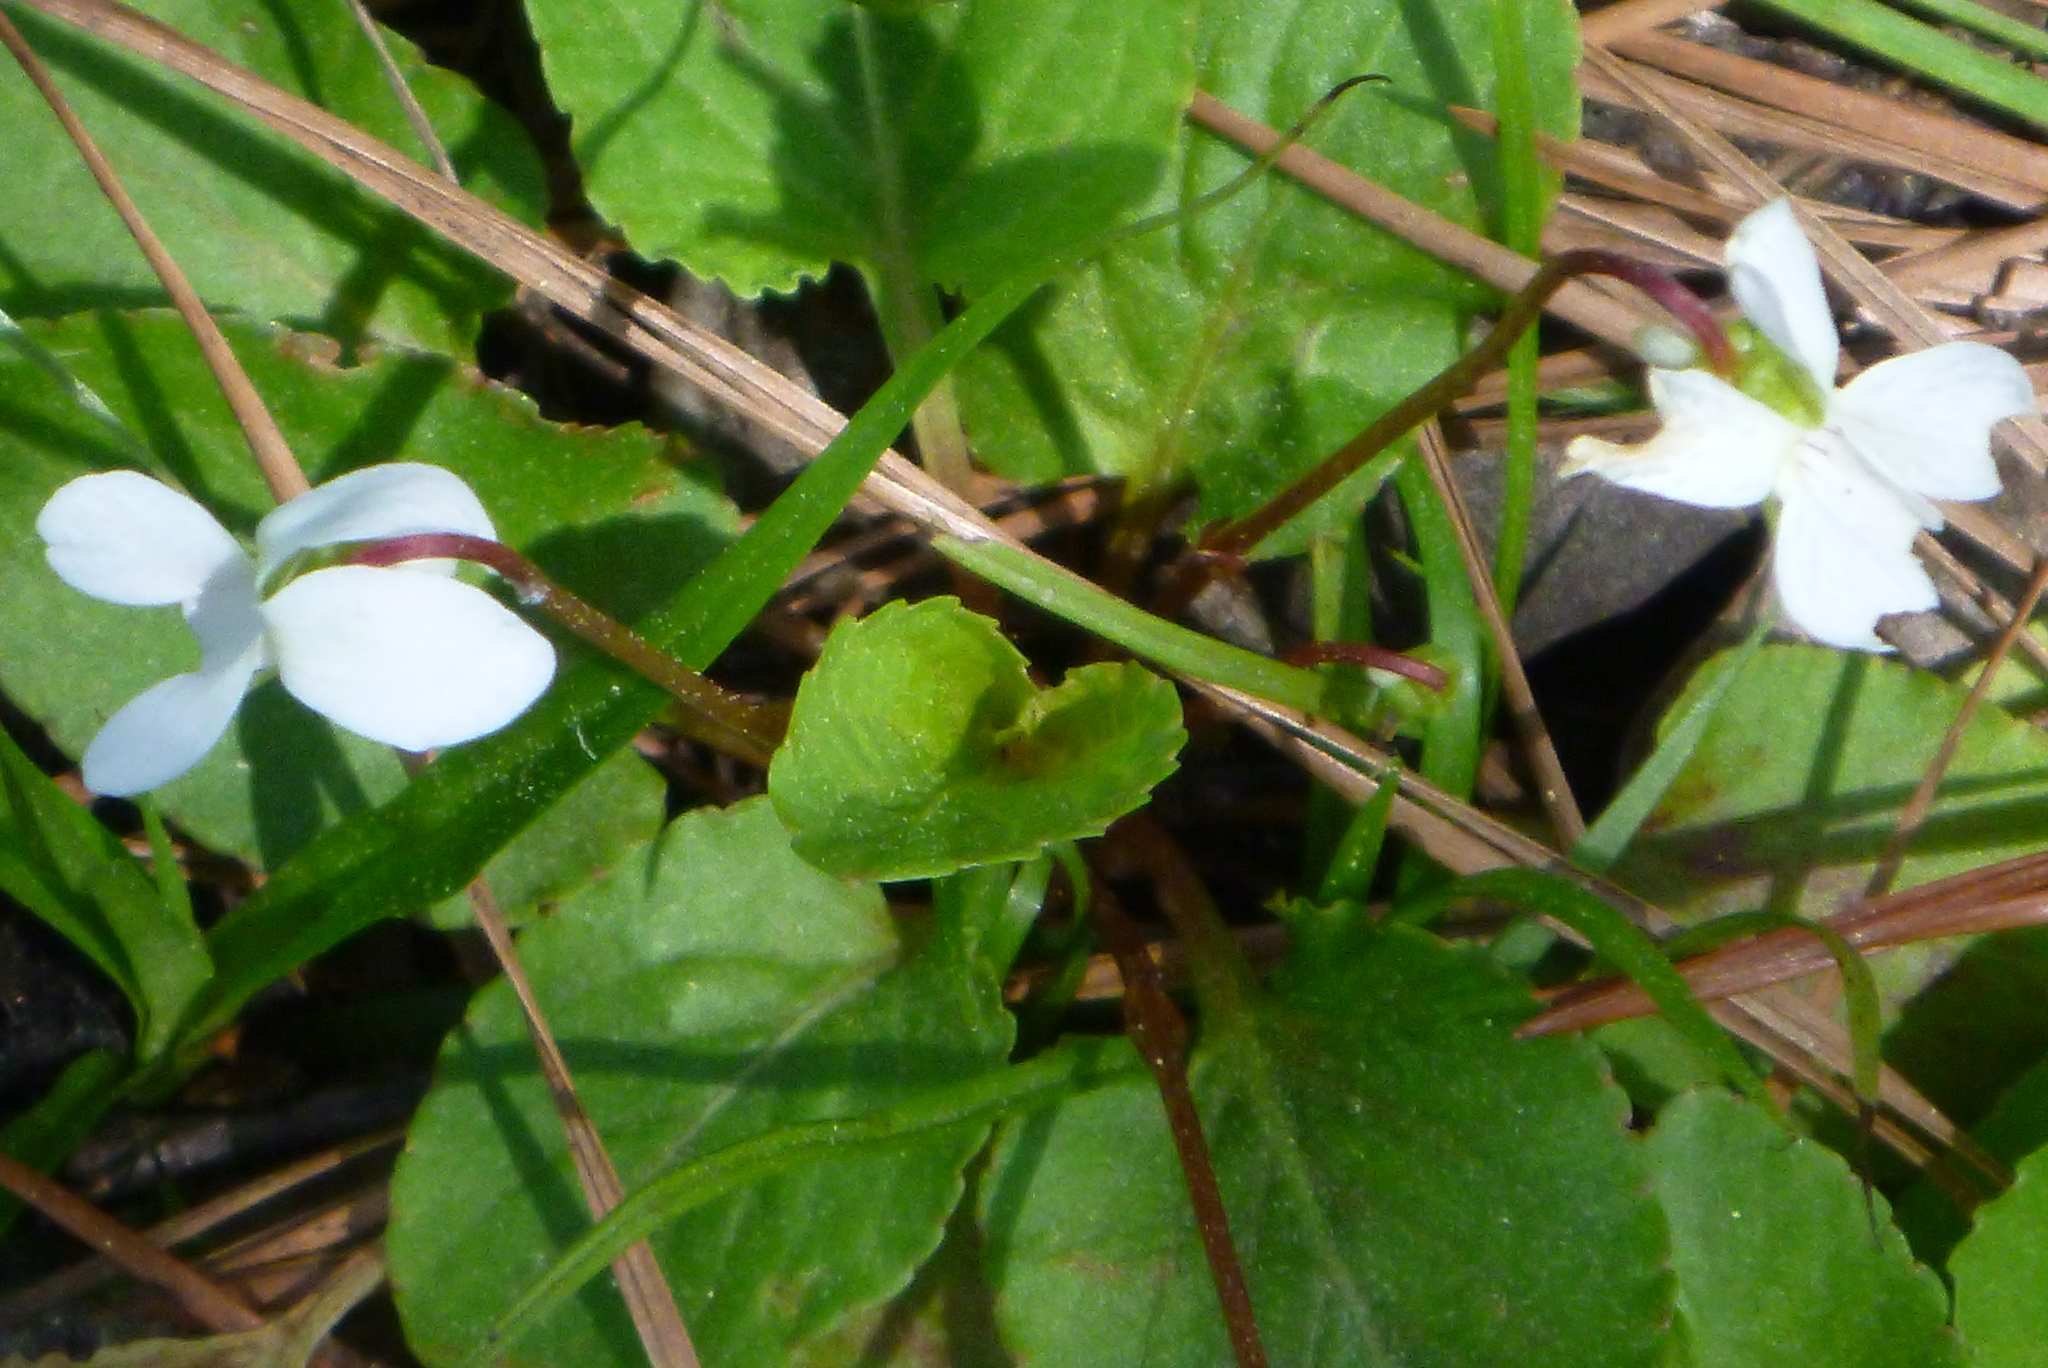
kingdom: Plantae
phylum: Tracheophyta
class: Magnoliopsida
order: Malpighiales
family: Violaceae
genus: Viola
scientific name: Viola primulifolia
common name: Primrose-leaf violet
